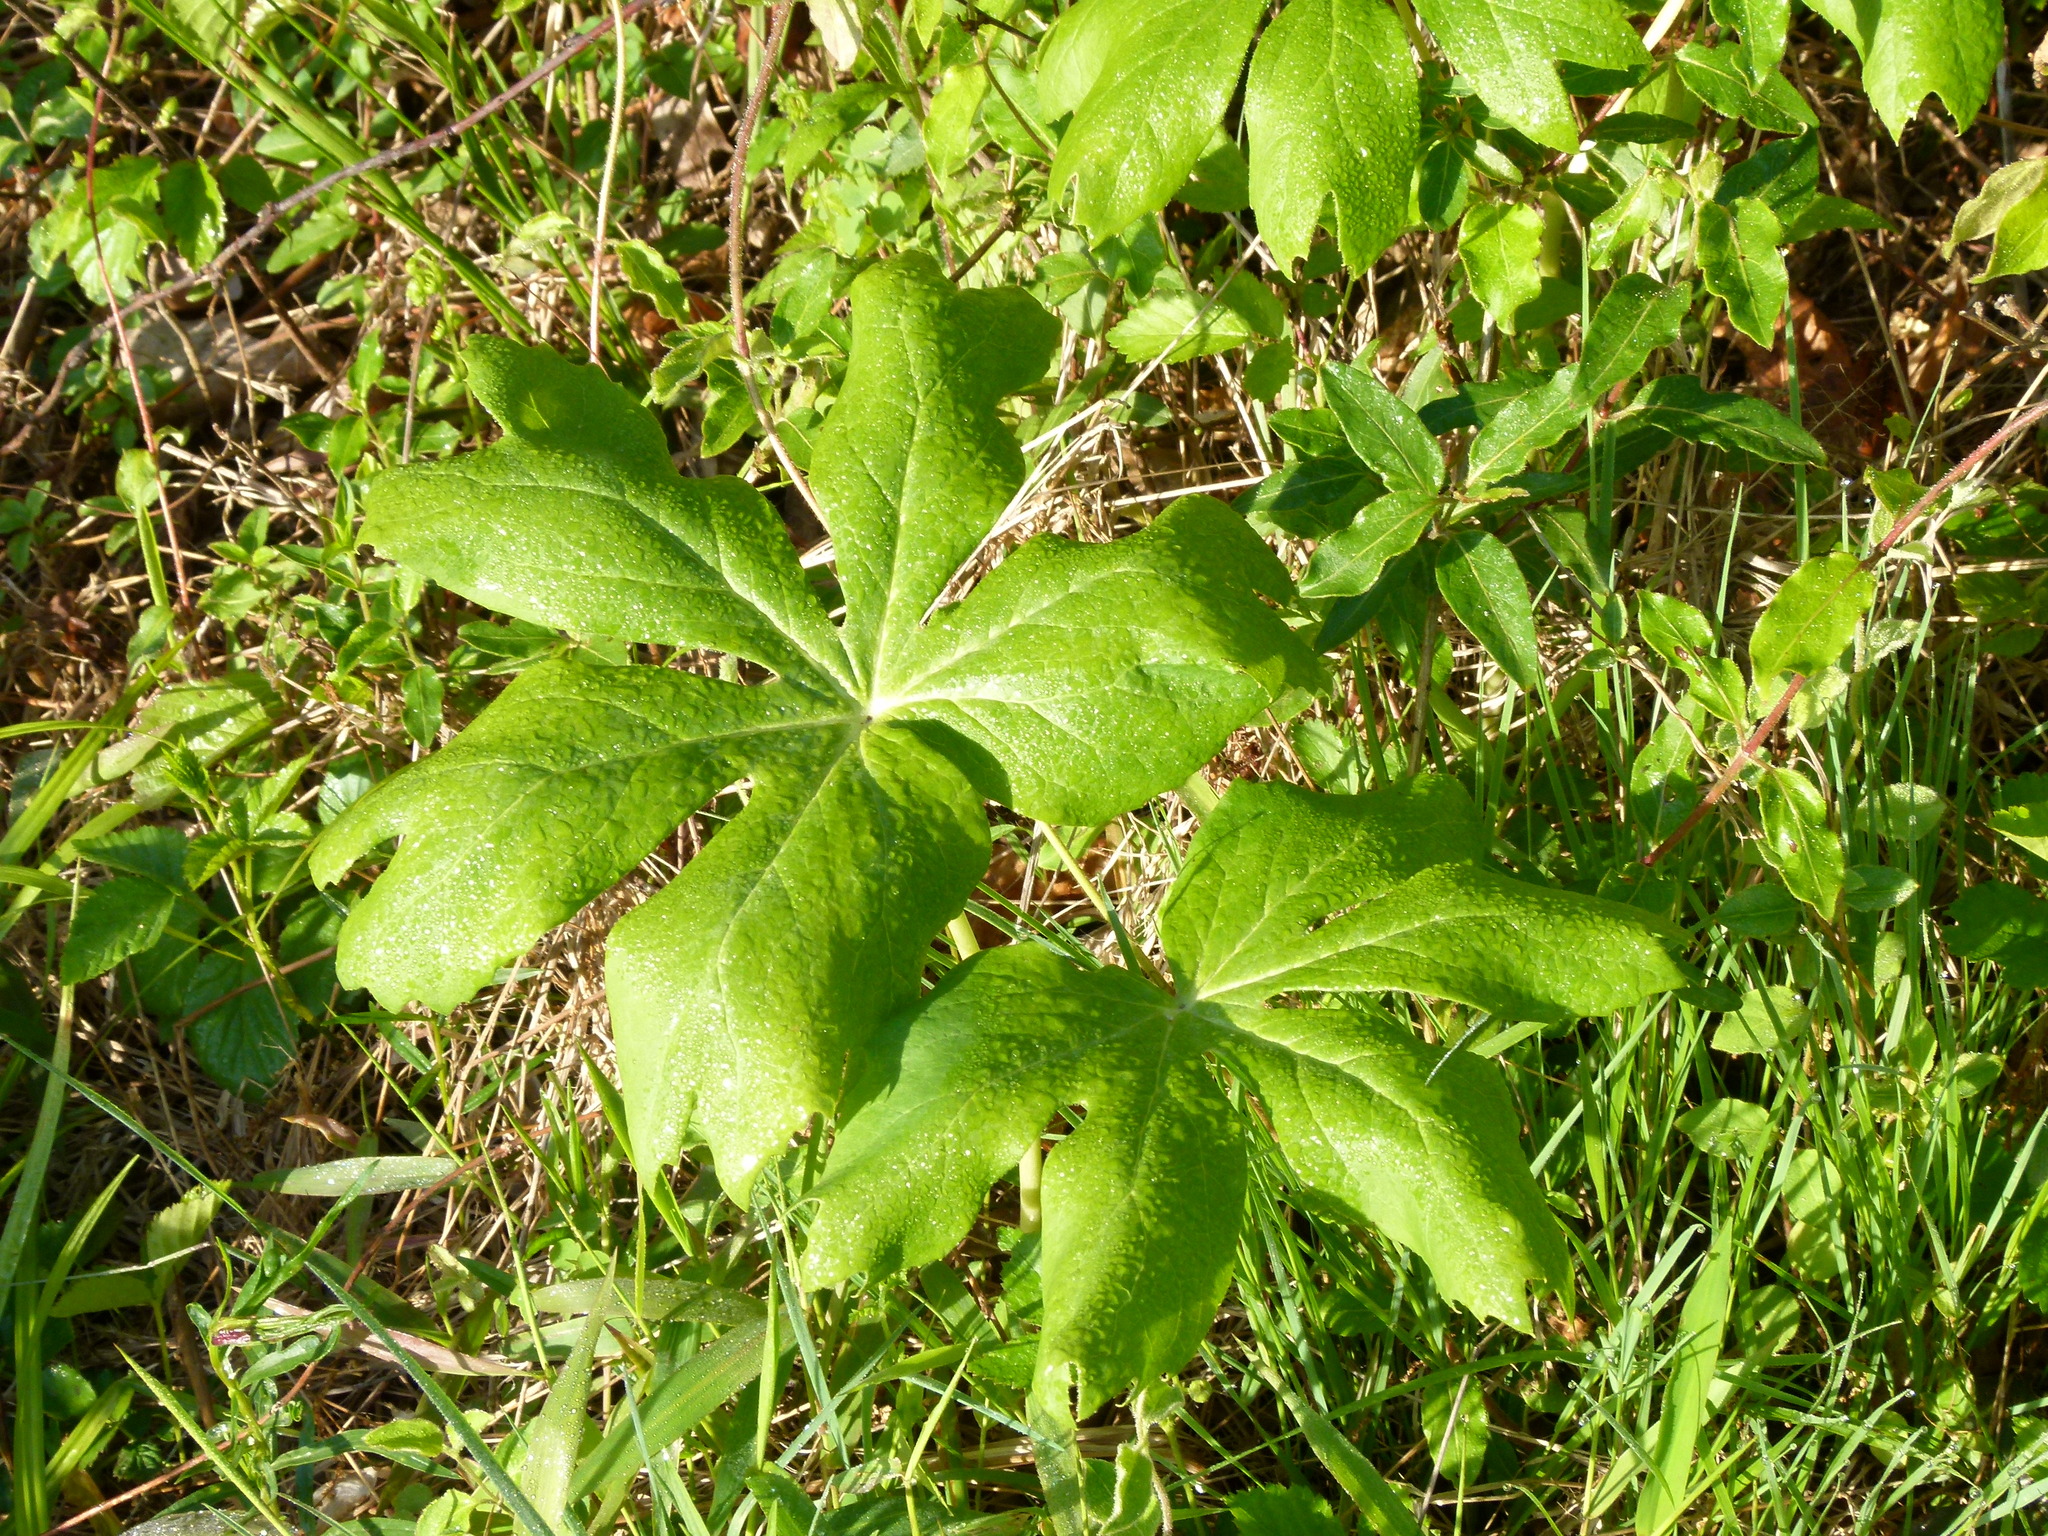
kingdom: Plantae
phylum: Tracheophyta
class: Magnoliopsida
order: Ranunculales
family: Berberidaceae
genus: Podophyllum
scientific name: Podophyllum peltatum
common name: Wild mandrake
